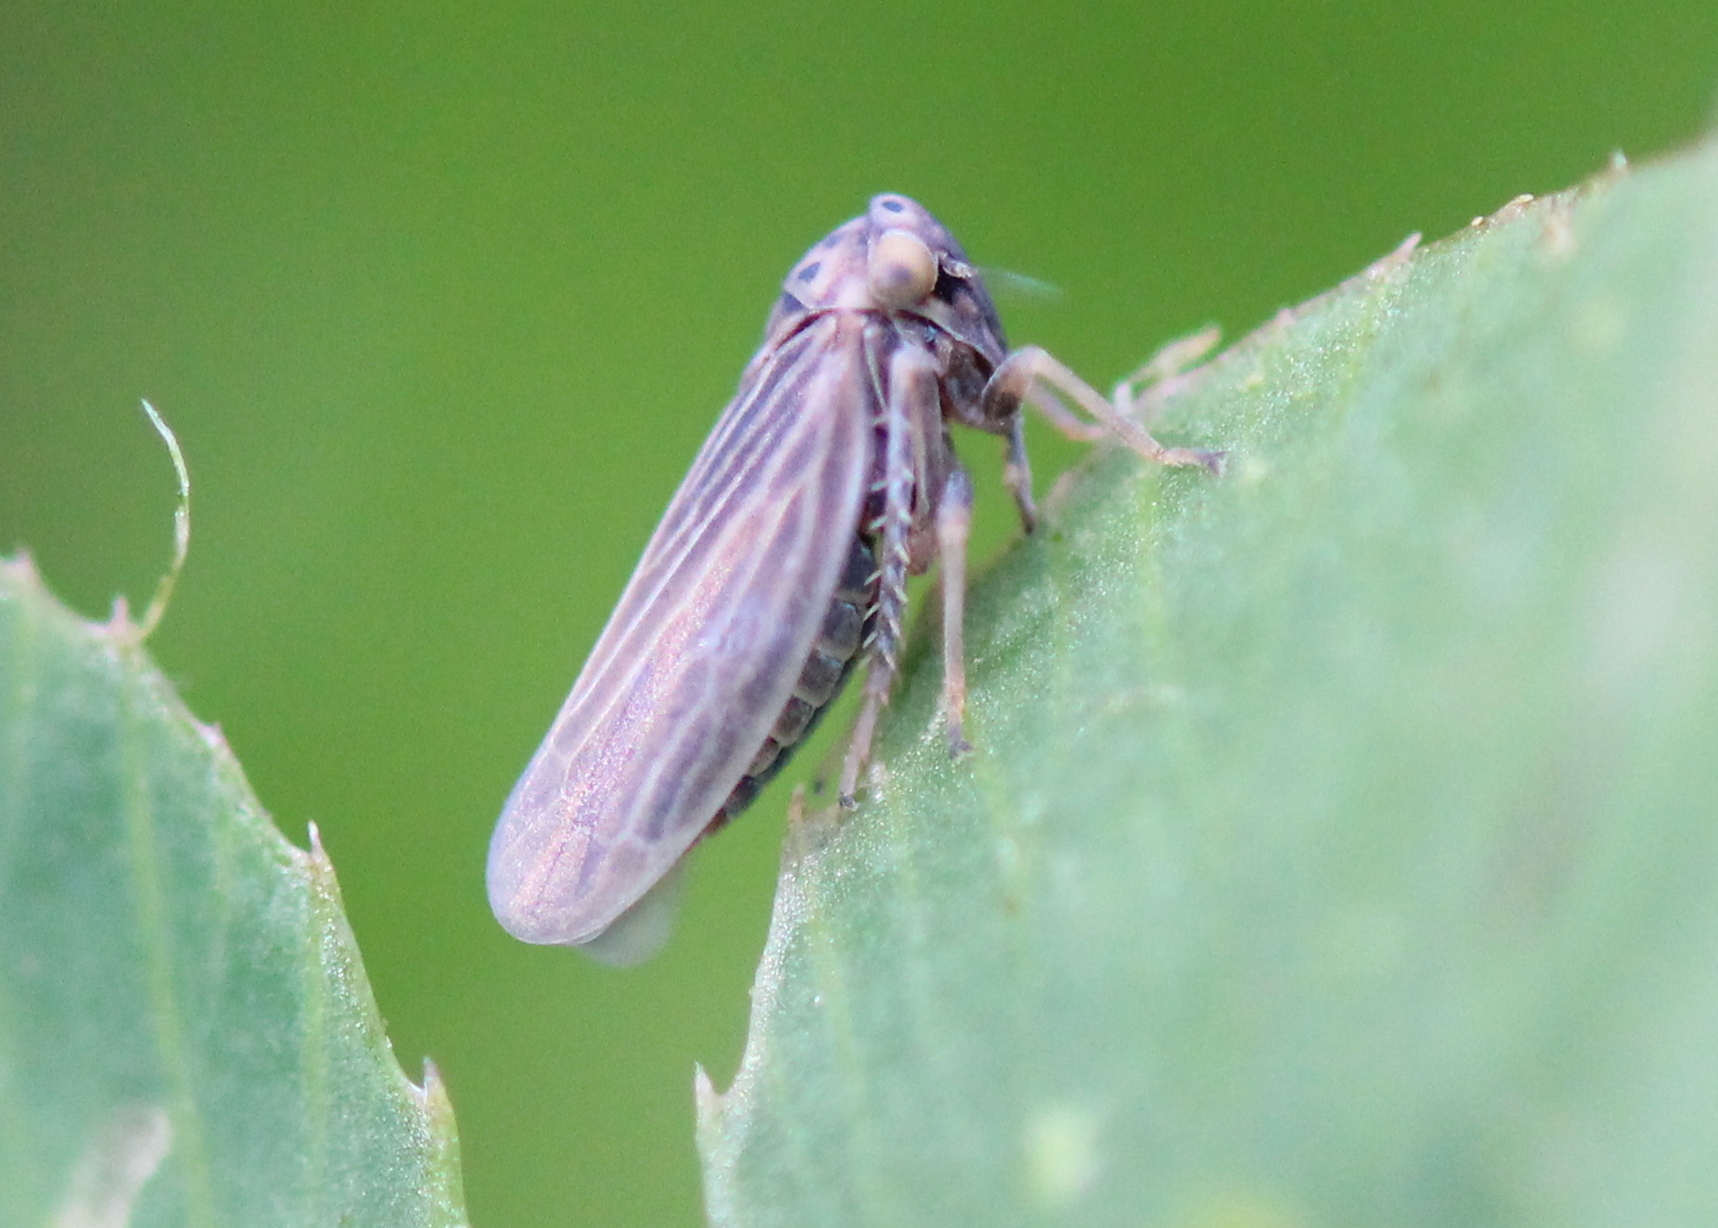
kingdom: Animalia
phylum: Arthropoda
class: Insecta
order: Hemiptera
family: Cicadellidae
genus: Agallia
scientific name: Agallia constricta
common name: The constricted leafhopper
